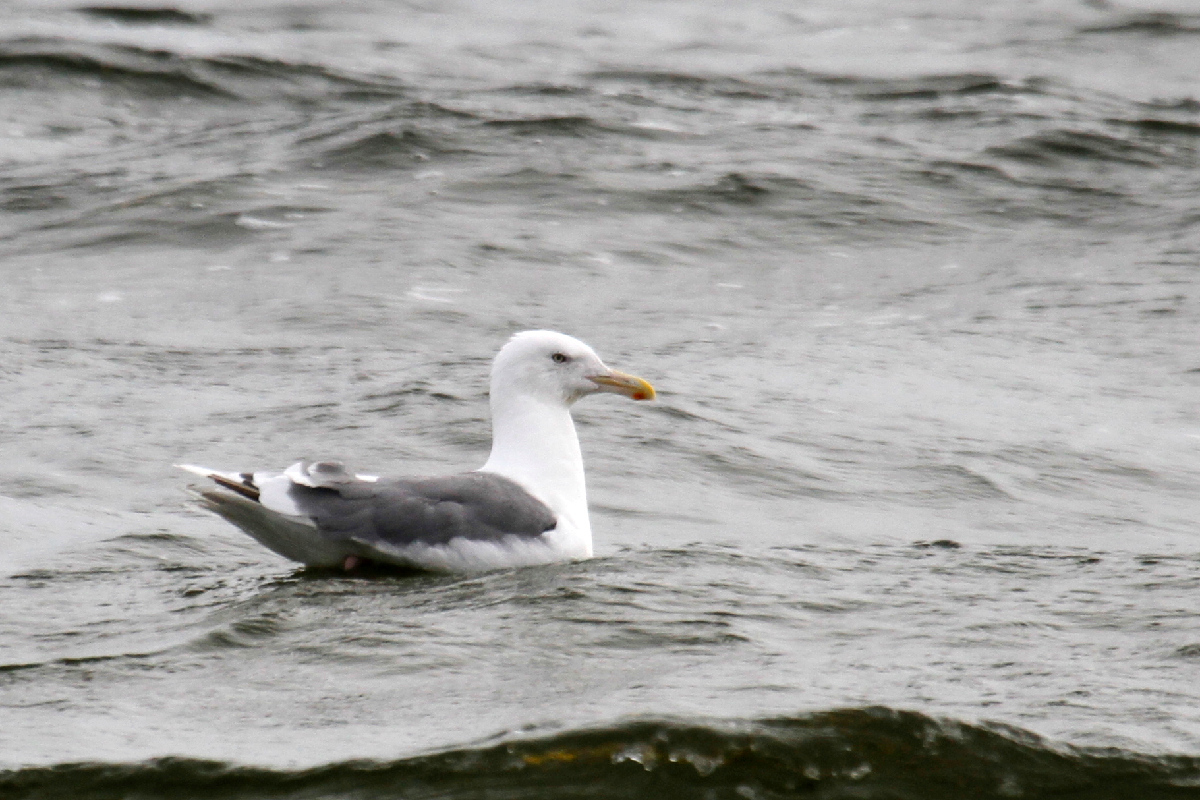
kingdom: Animalia
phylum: Chordata
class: Aves
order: Charadriiformes
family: Laridae
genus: Larus
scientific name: Larus vegae
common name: Vega gull
